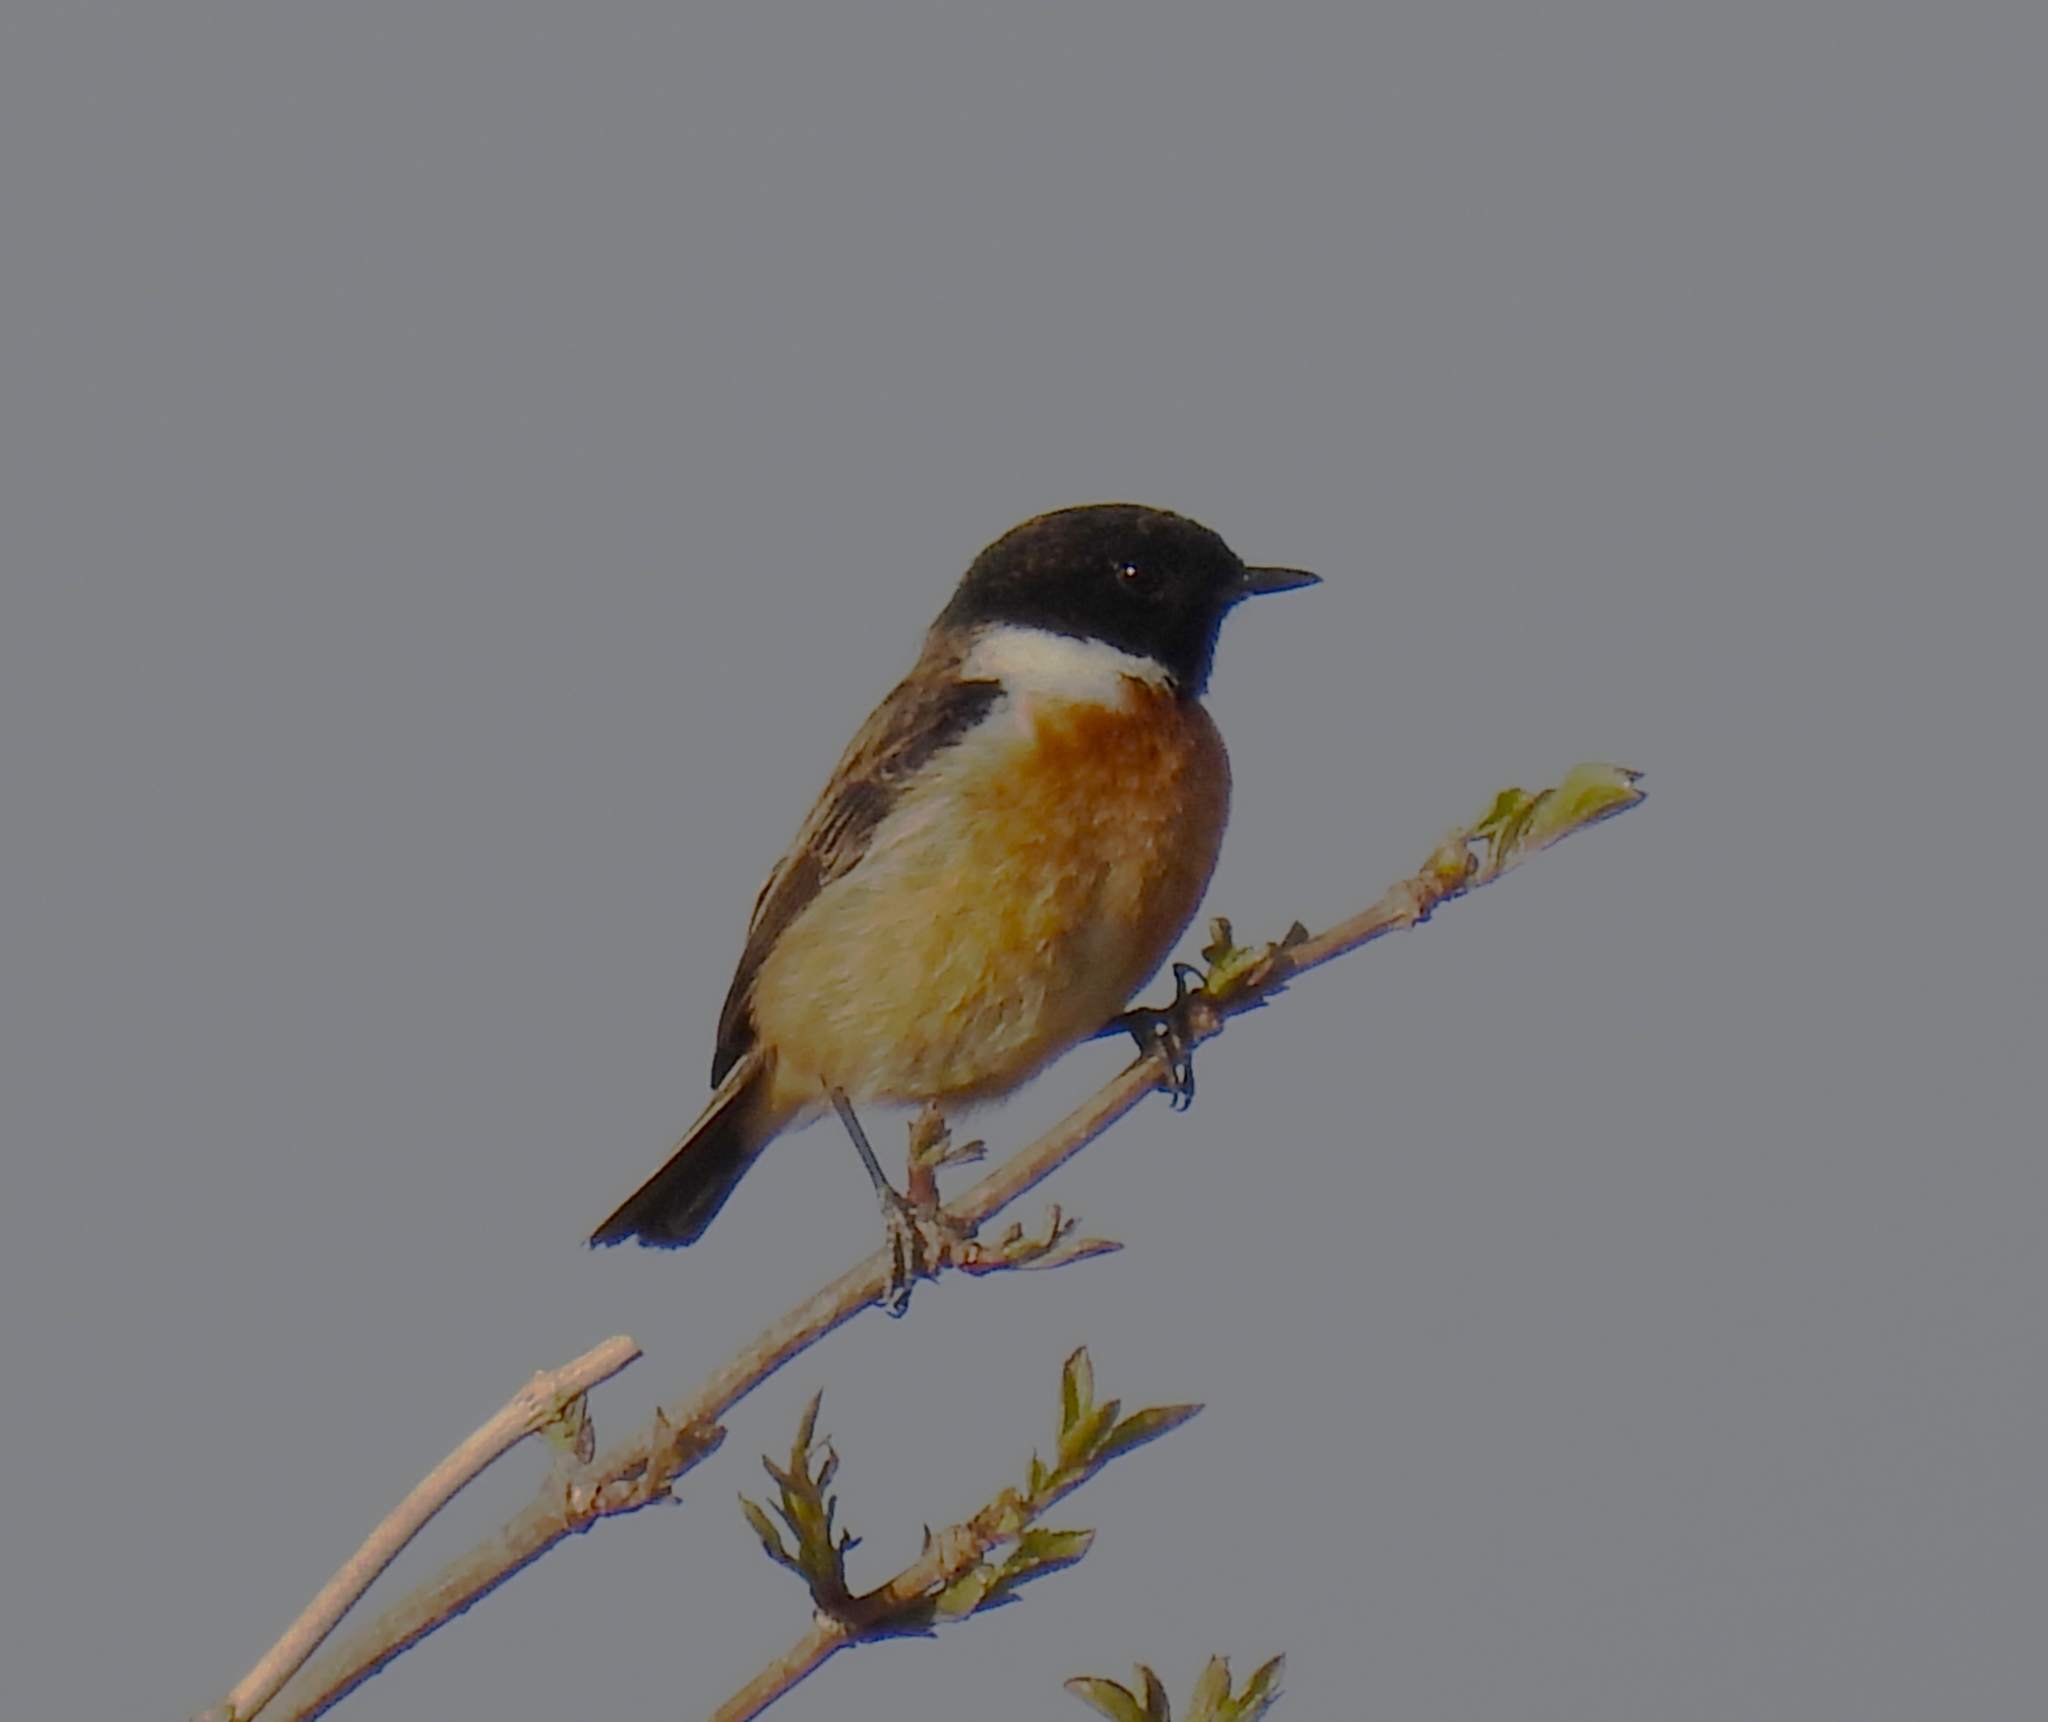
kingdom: Animalia
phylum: Chordata
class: Aves
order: Passeriformes
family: Muscicapidae
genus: Saxicola
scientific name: Saxicola rubicola
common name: European stonechat
